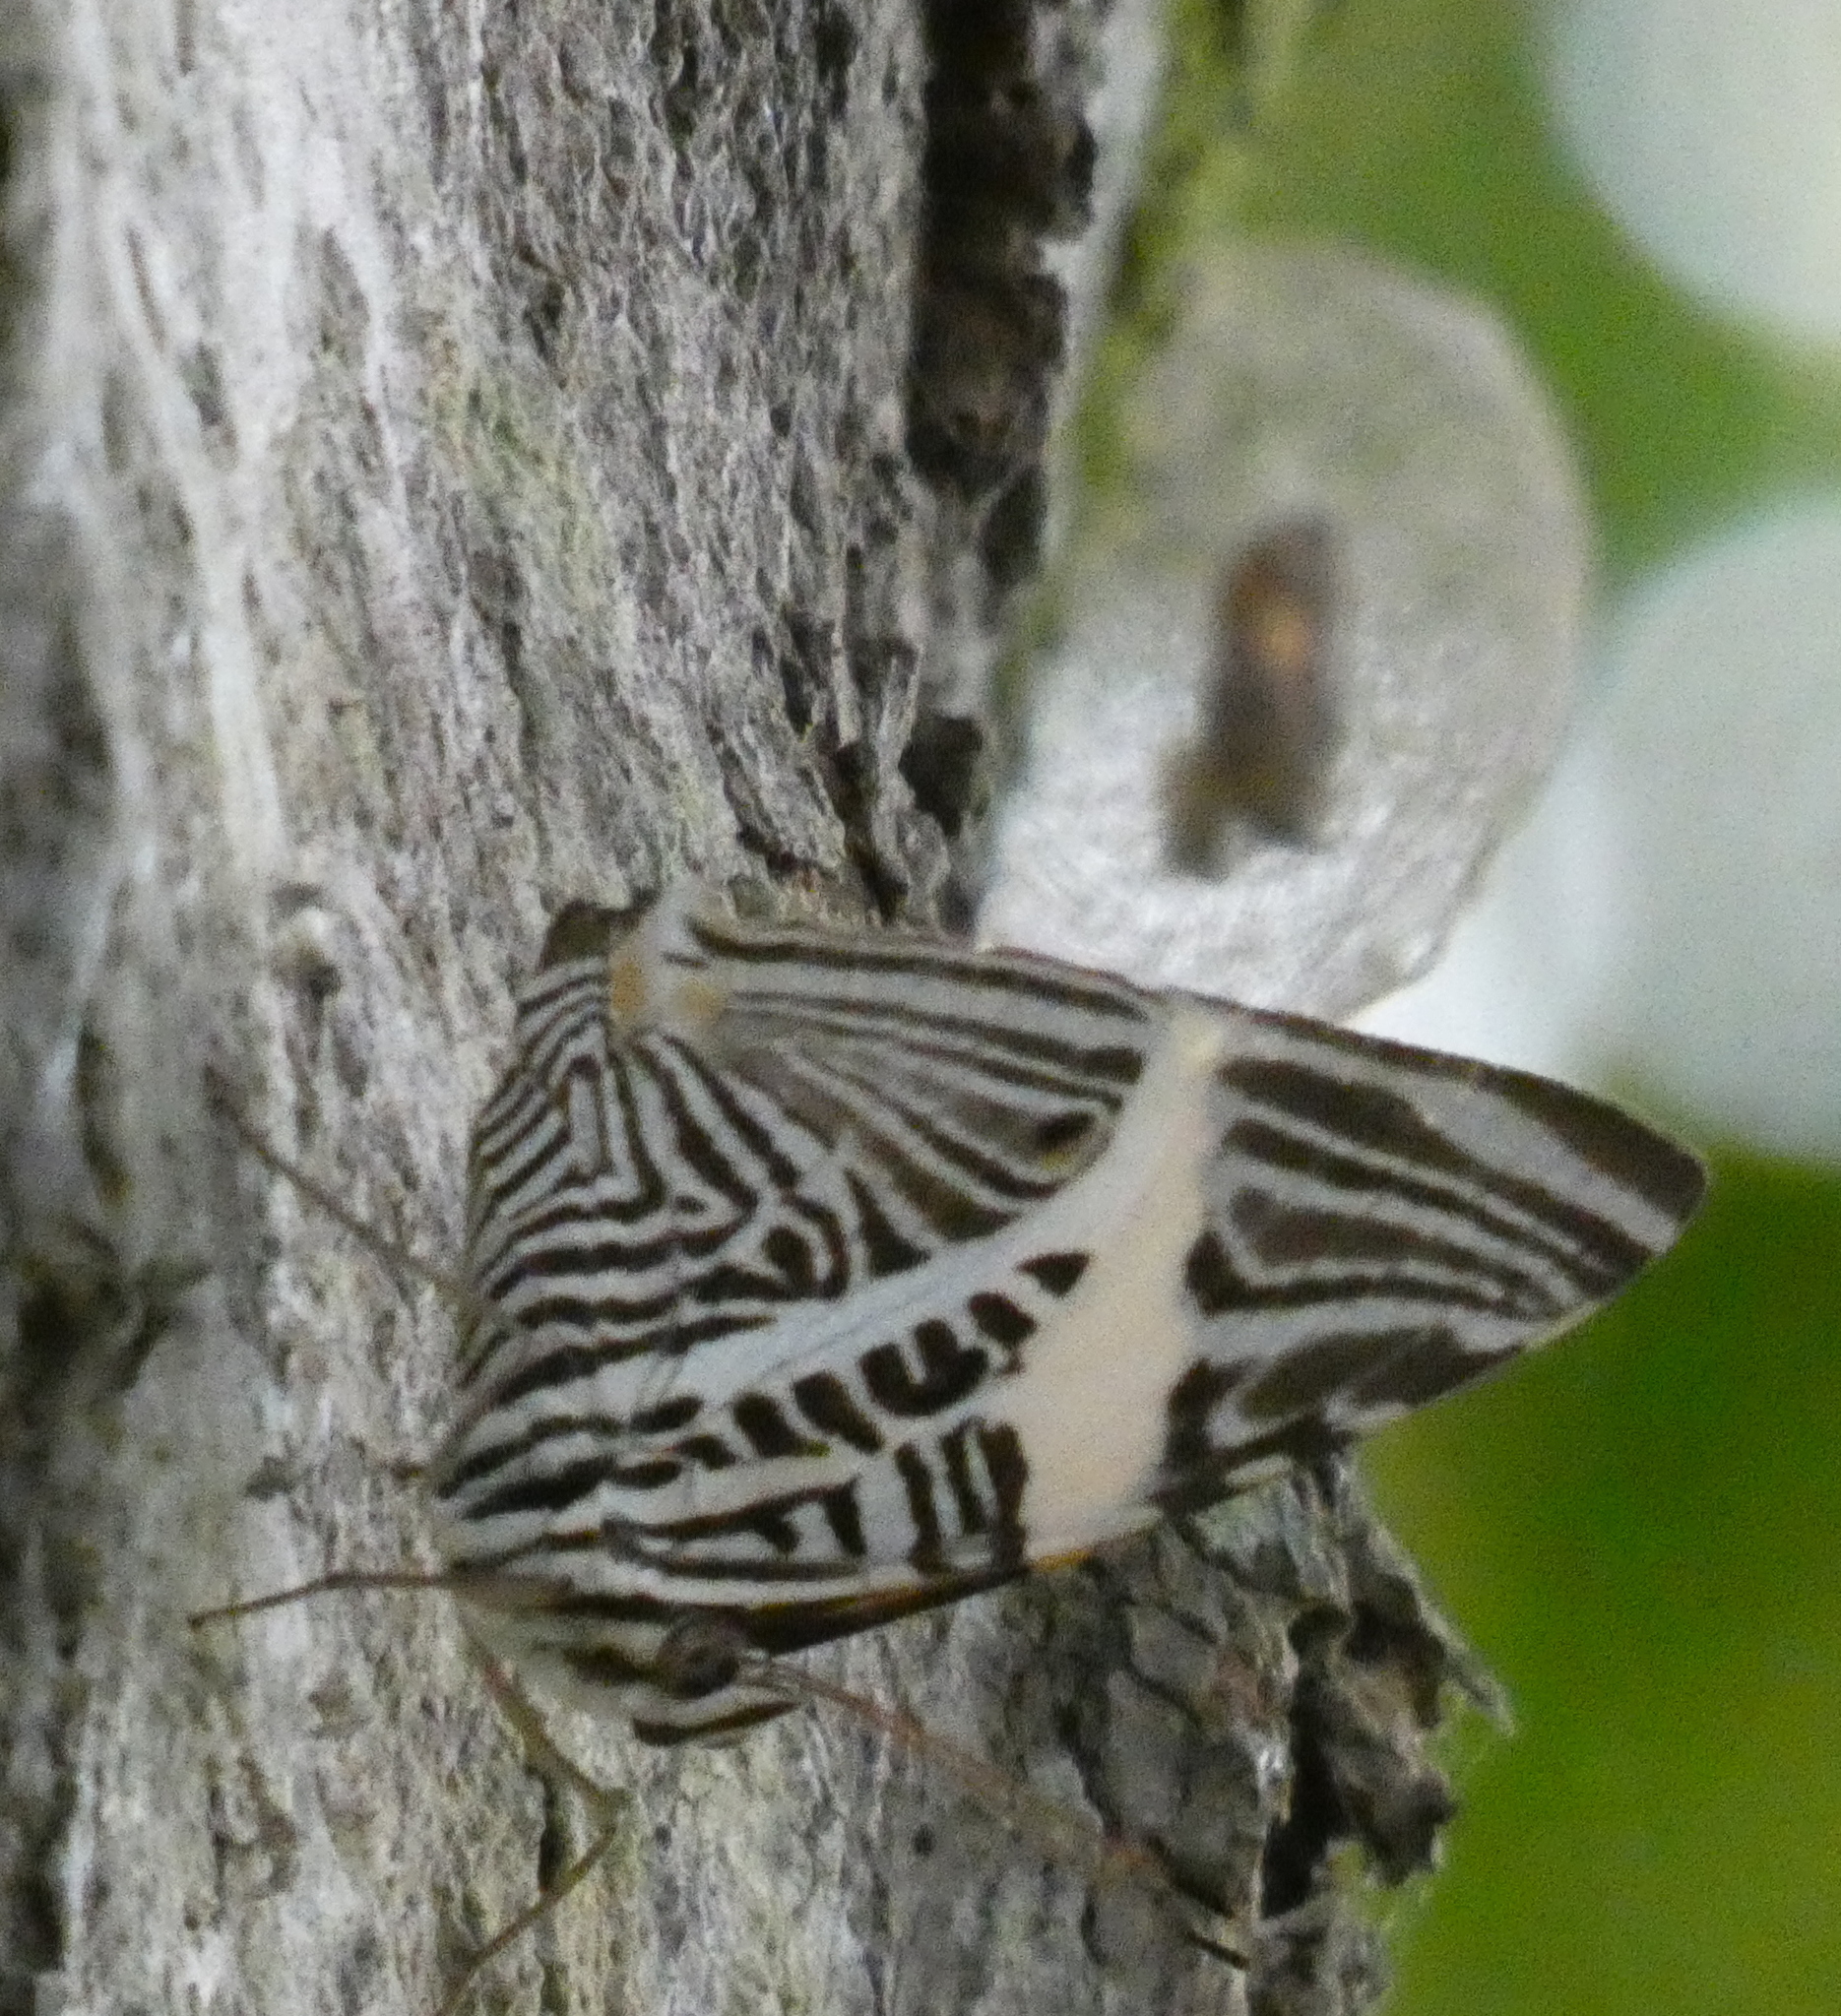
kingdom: Animalia
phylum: Arthropoda
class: Insecta
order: Lepidoptera
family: Nymphalidae
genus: Colobura
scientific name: Colobura dirce
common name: Dirce beauty
